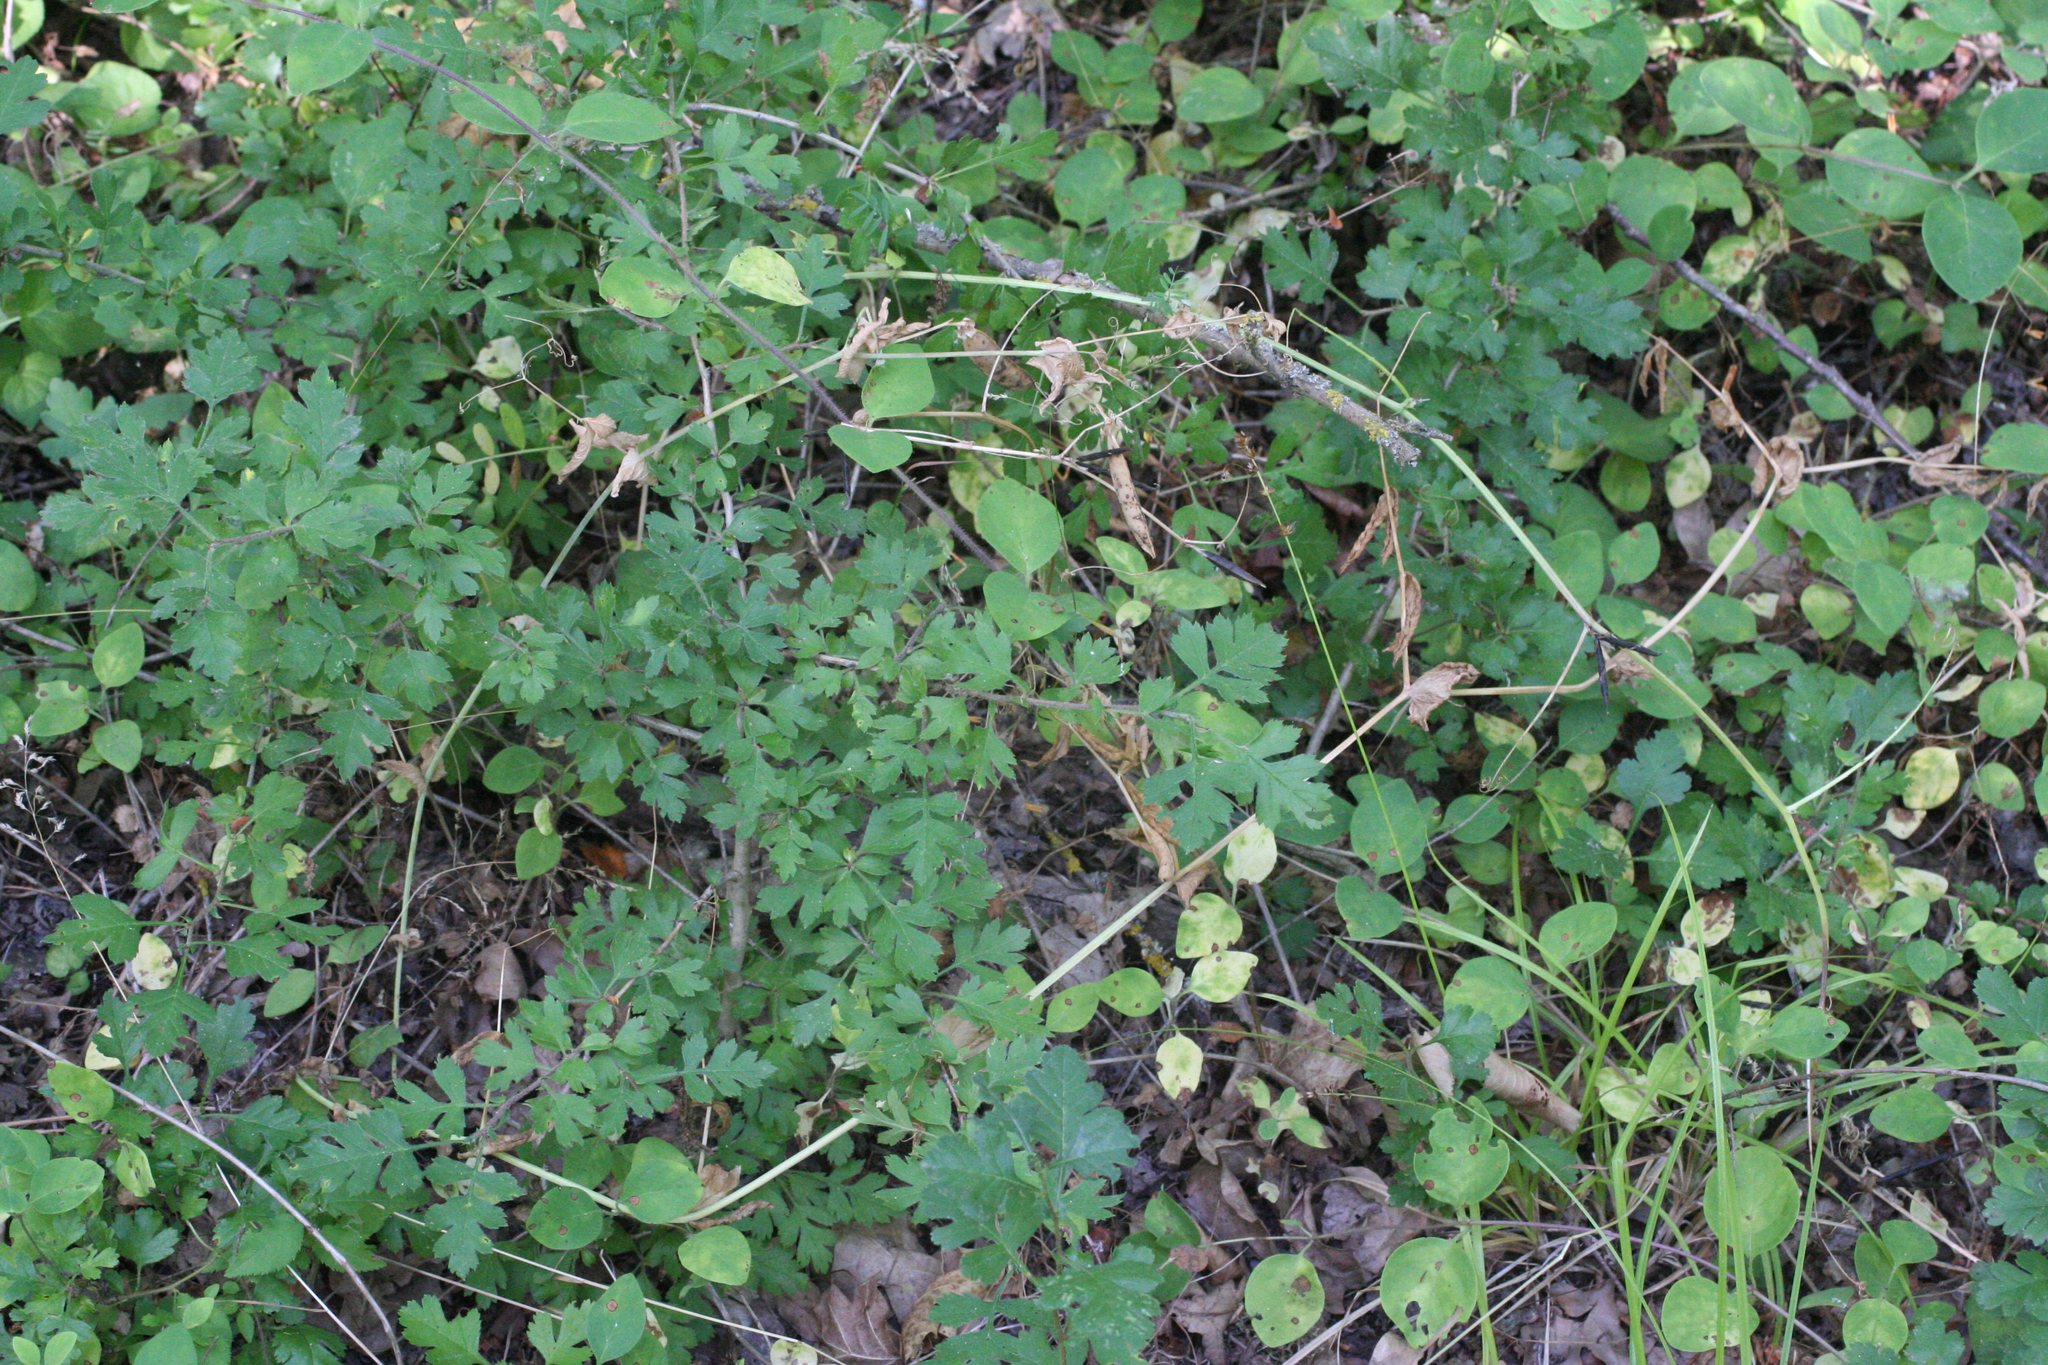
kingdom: Plantae
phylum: Tracheophyta
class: Magnoliopsida
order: Fabales
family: Fabaceae
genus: Lathyrus
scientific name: Lathyrus oleraceus
